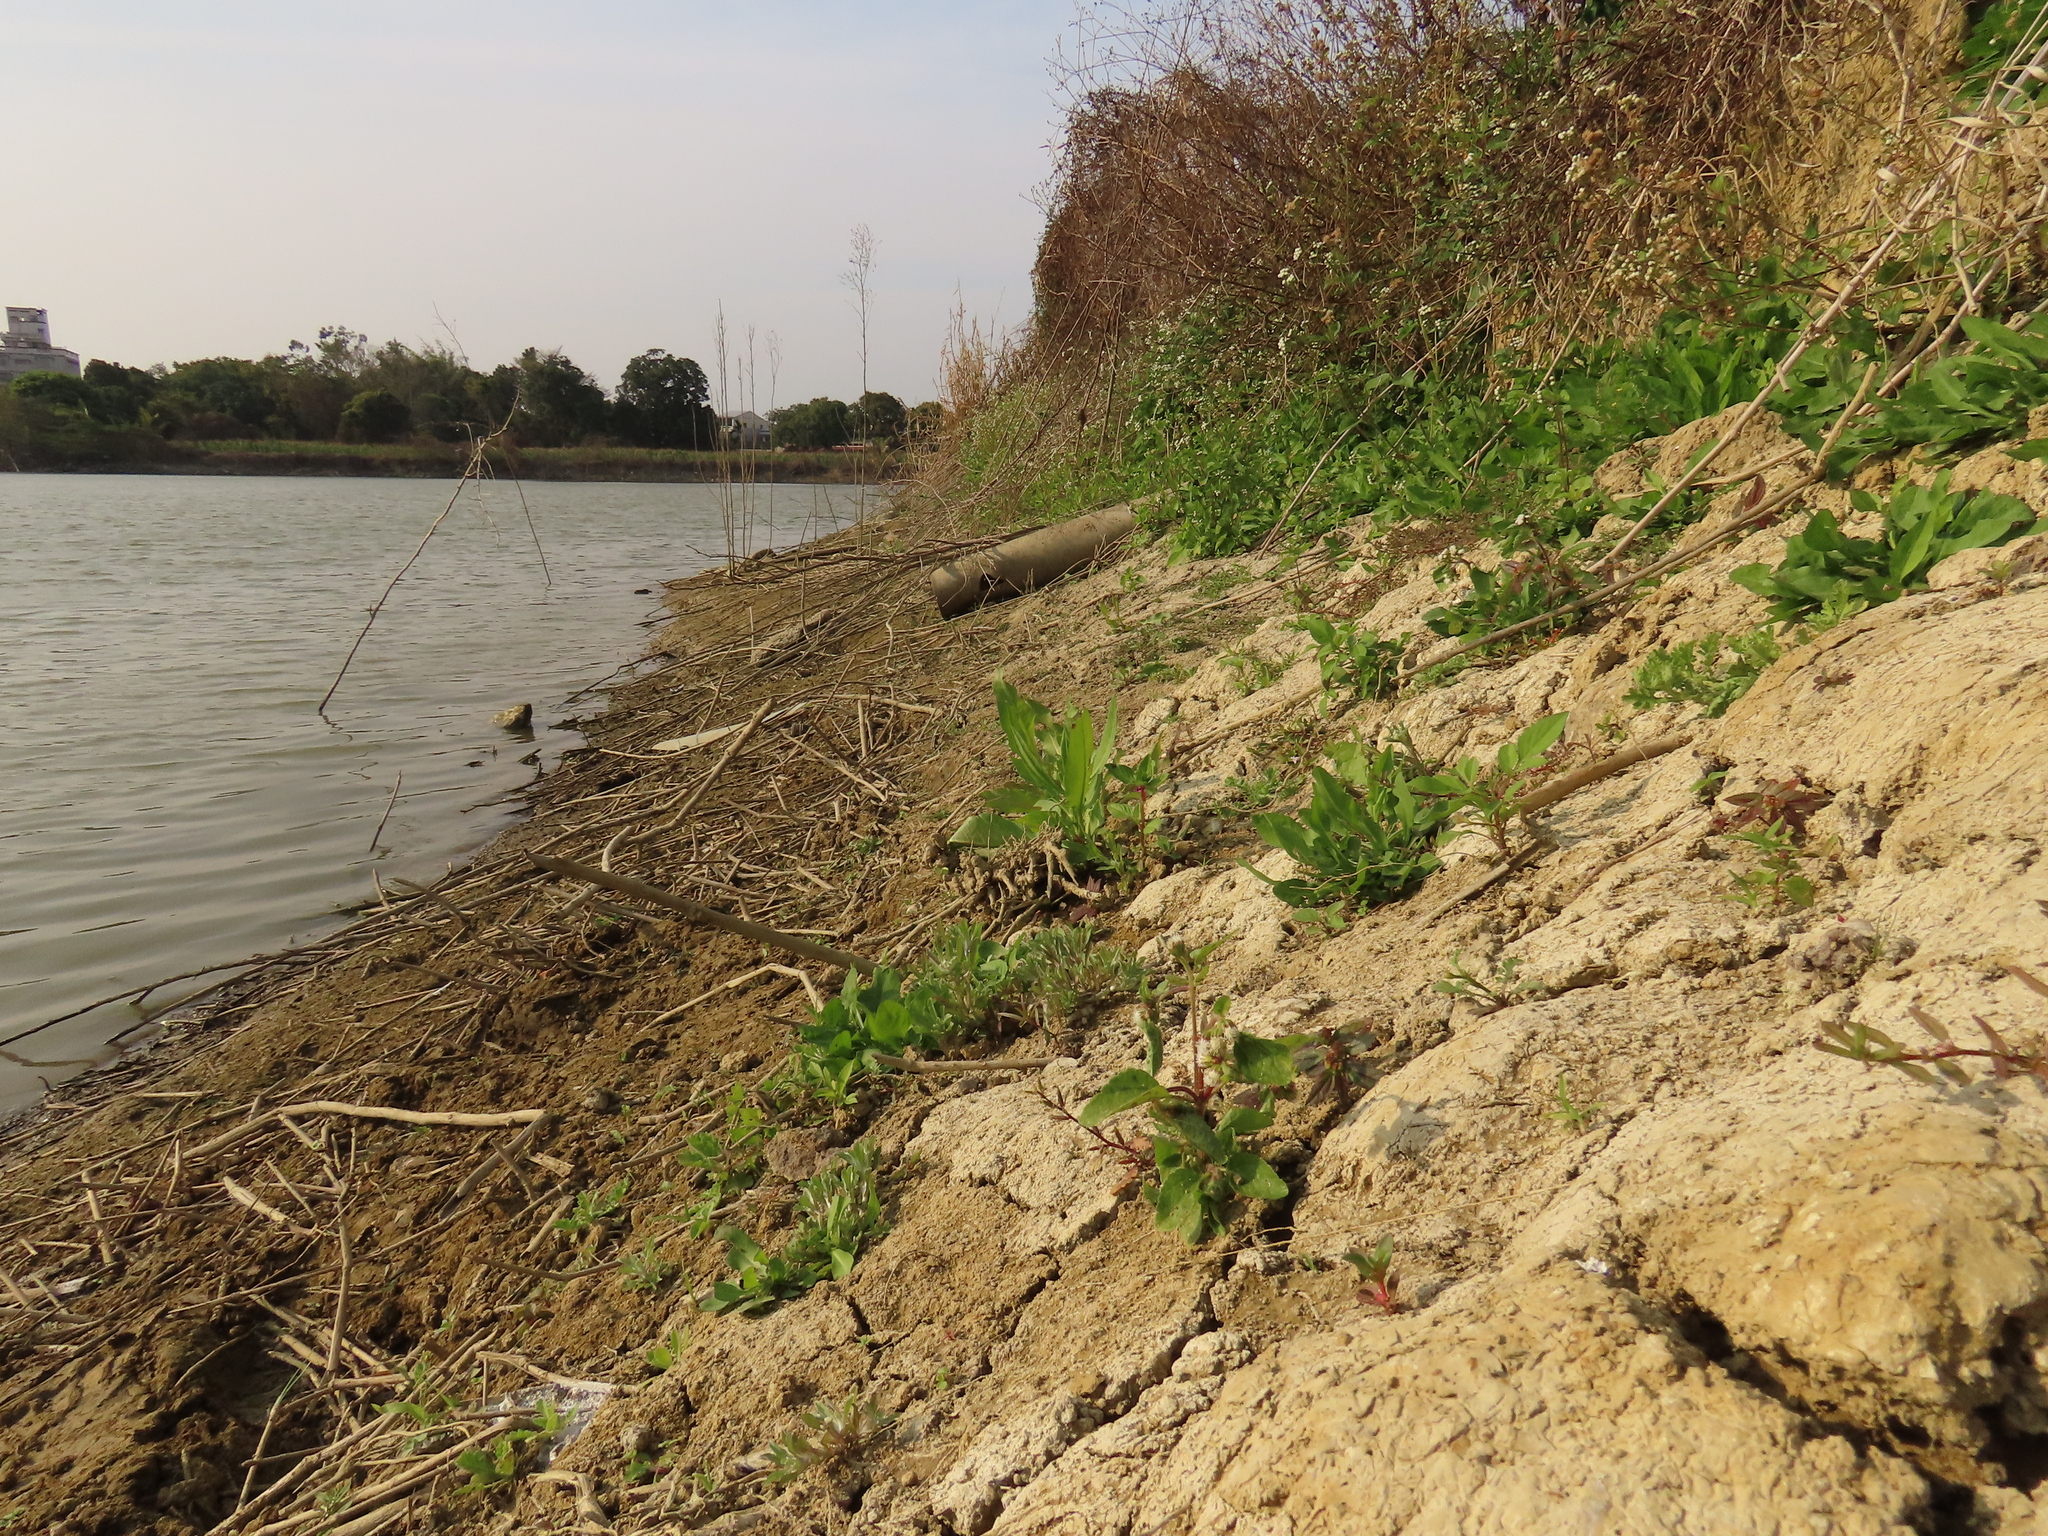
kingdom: Plantae
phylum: Tracheophyta
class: Magnoliopsida
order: Asterales
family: Asteraceae
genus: Grangea
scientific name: Grangea maderaspatana
